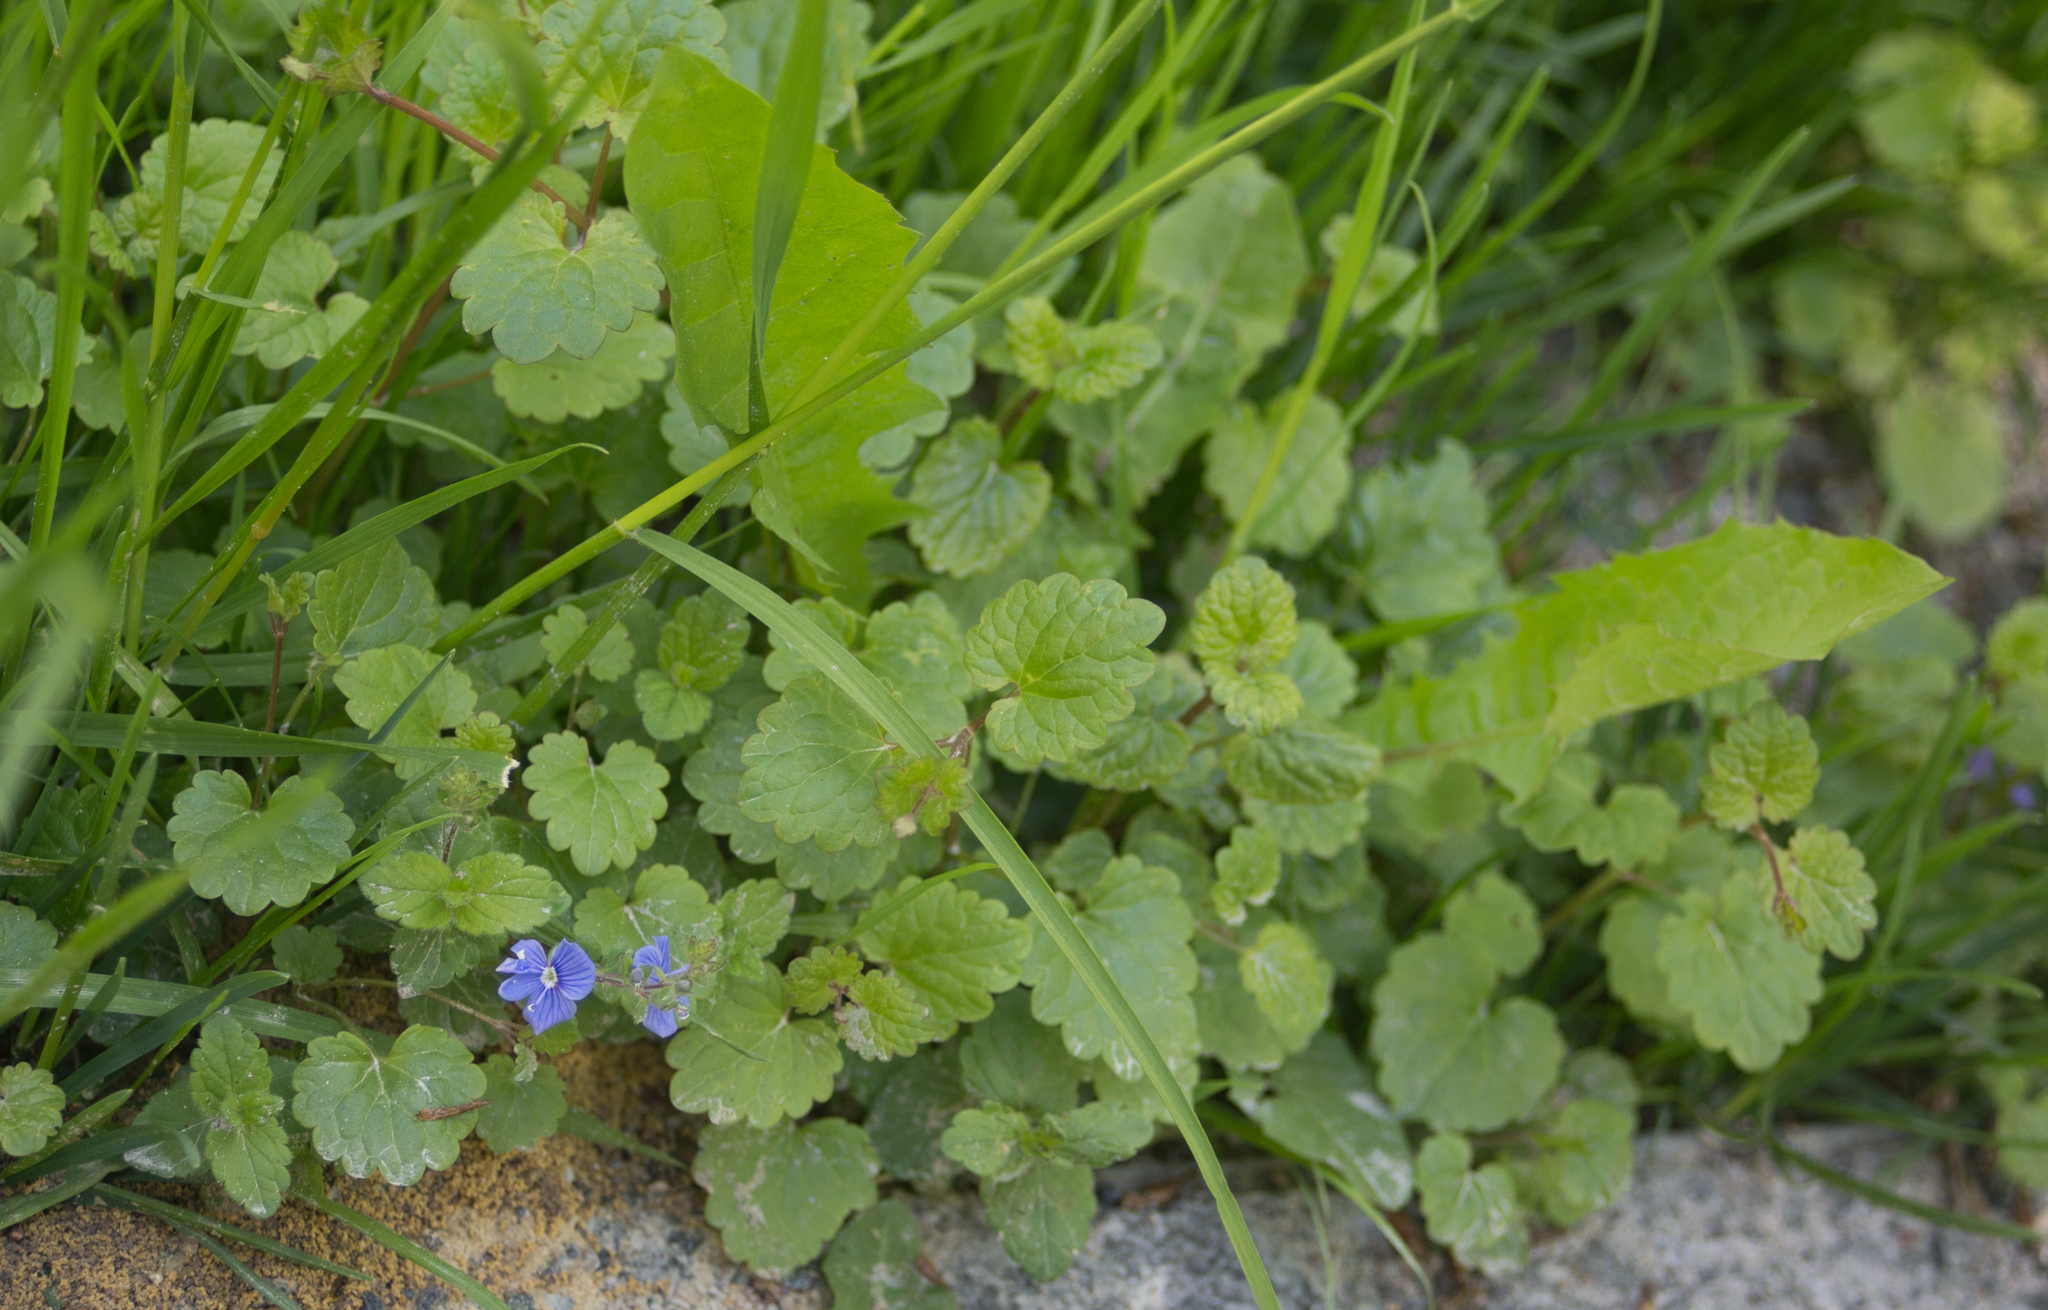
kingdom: Plantae
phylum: Tracheophyta
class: Magnoliopsida
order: Lamiales
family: Lamiaceae
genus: Glechoma
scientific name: Glechoma hederacea
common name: Ground ivy
